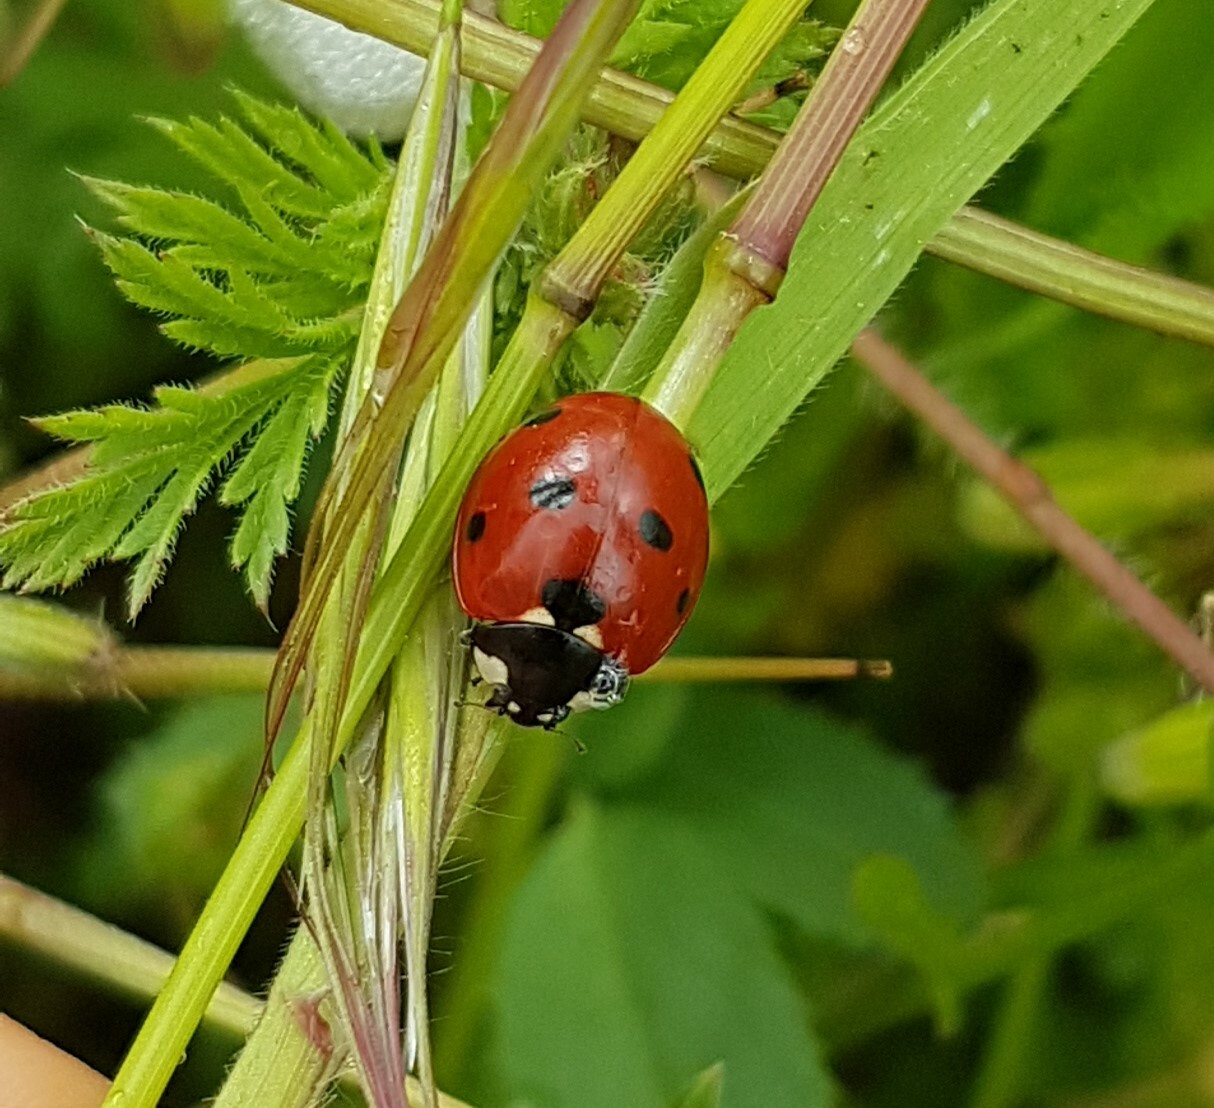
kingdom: Animalia
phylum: Arthropoda
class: Insecta
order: Coleoptera
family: Coccinellidae
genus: Coccinella
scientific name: Coccinella septempunctata
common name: Sevenspotted lady beetle
